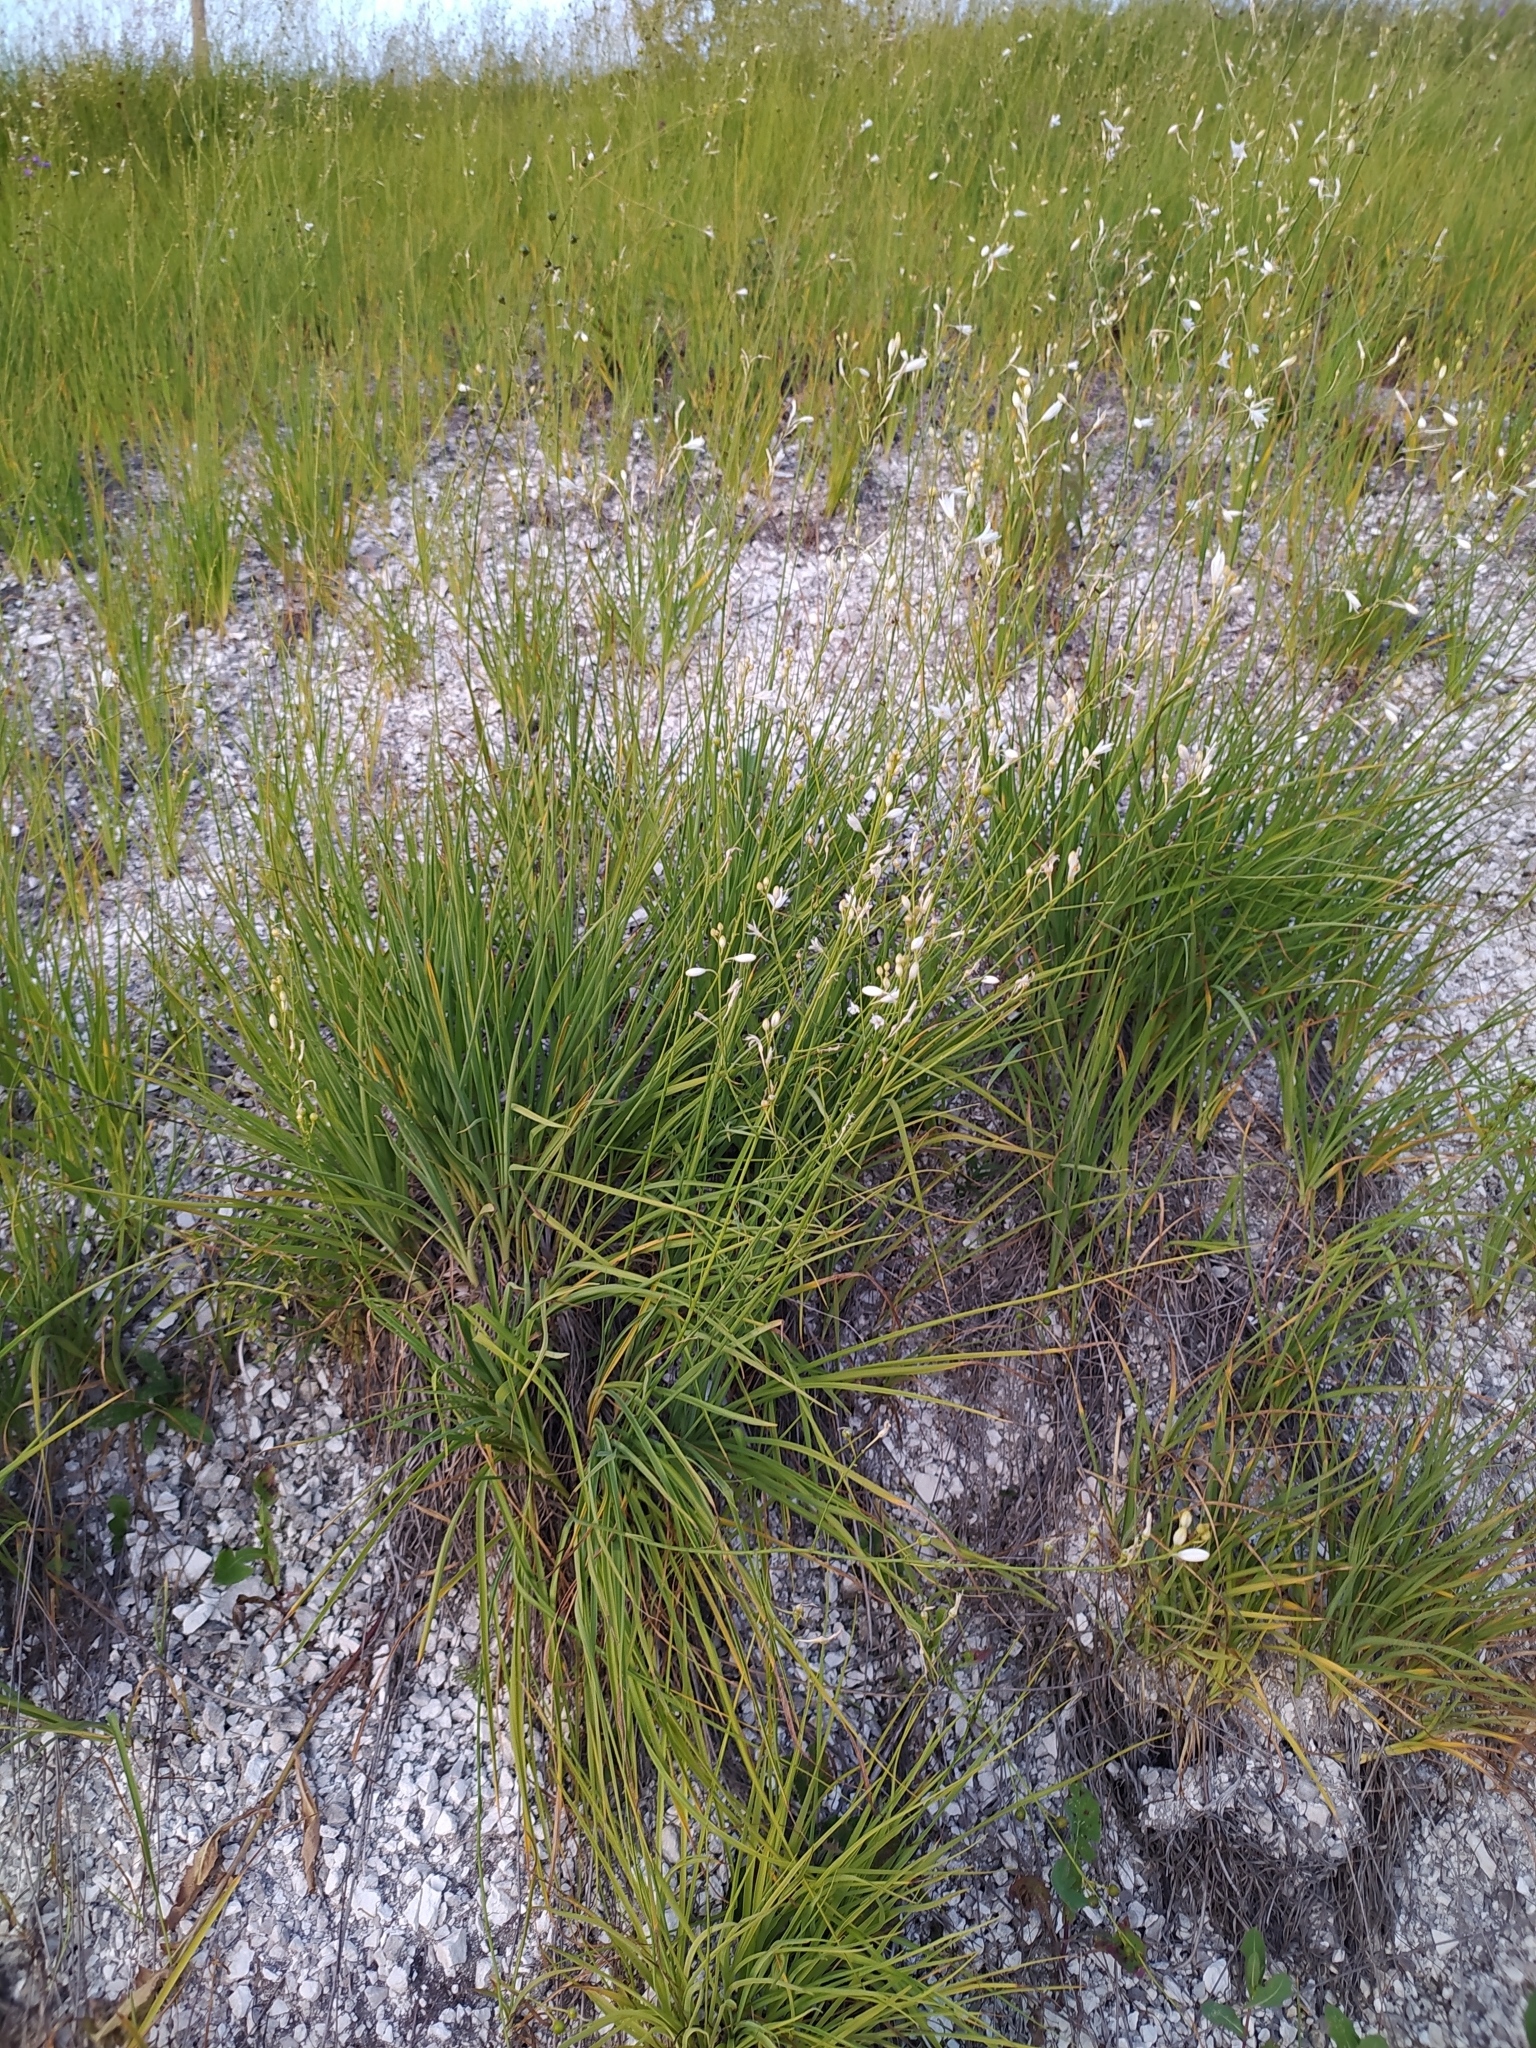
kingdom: Plantae
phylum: Tracheophyta
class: Liliopsida
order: Asparagales
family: Asparagaceae
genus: Anthericum
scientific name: Anthericum ramosum
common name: Branched st. bernard's-lily
